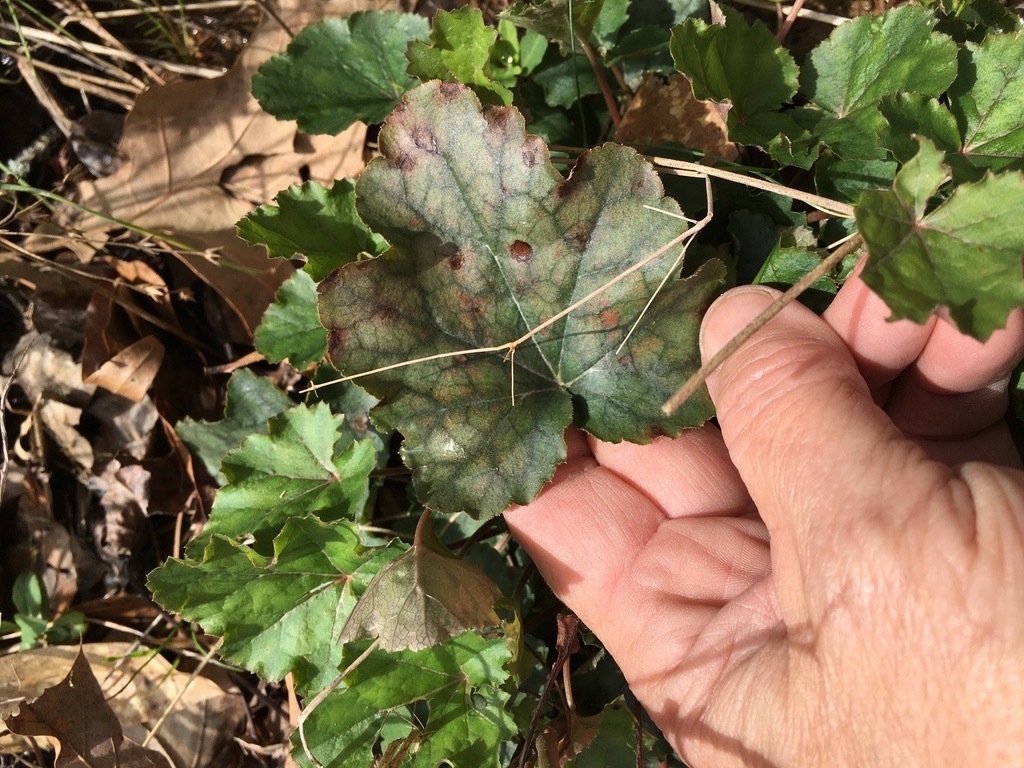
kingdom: Plantae
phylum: Tracheophyta
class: Magnoliopsida
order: Saxifragales
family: Saxifragaceae
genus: Heuchera
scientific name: Heuchera caroliniana
